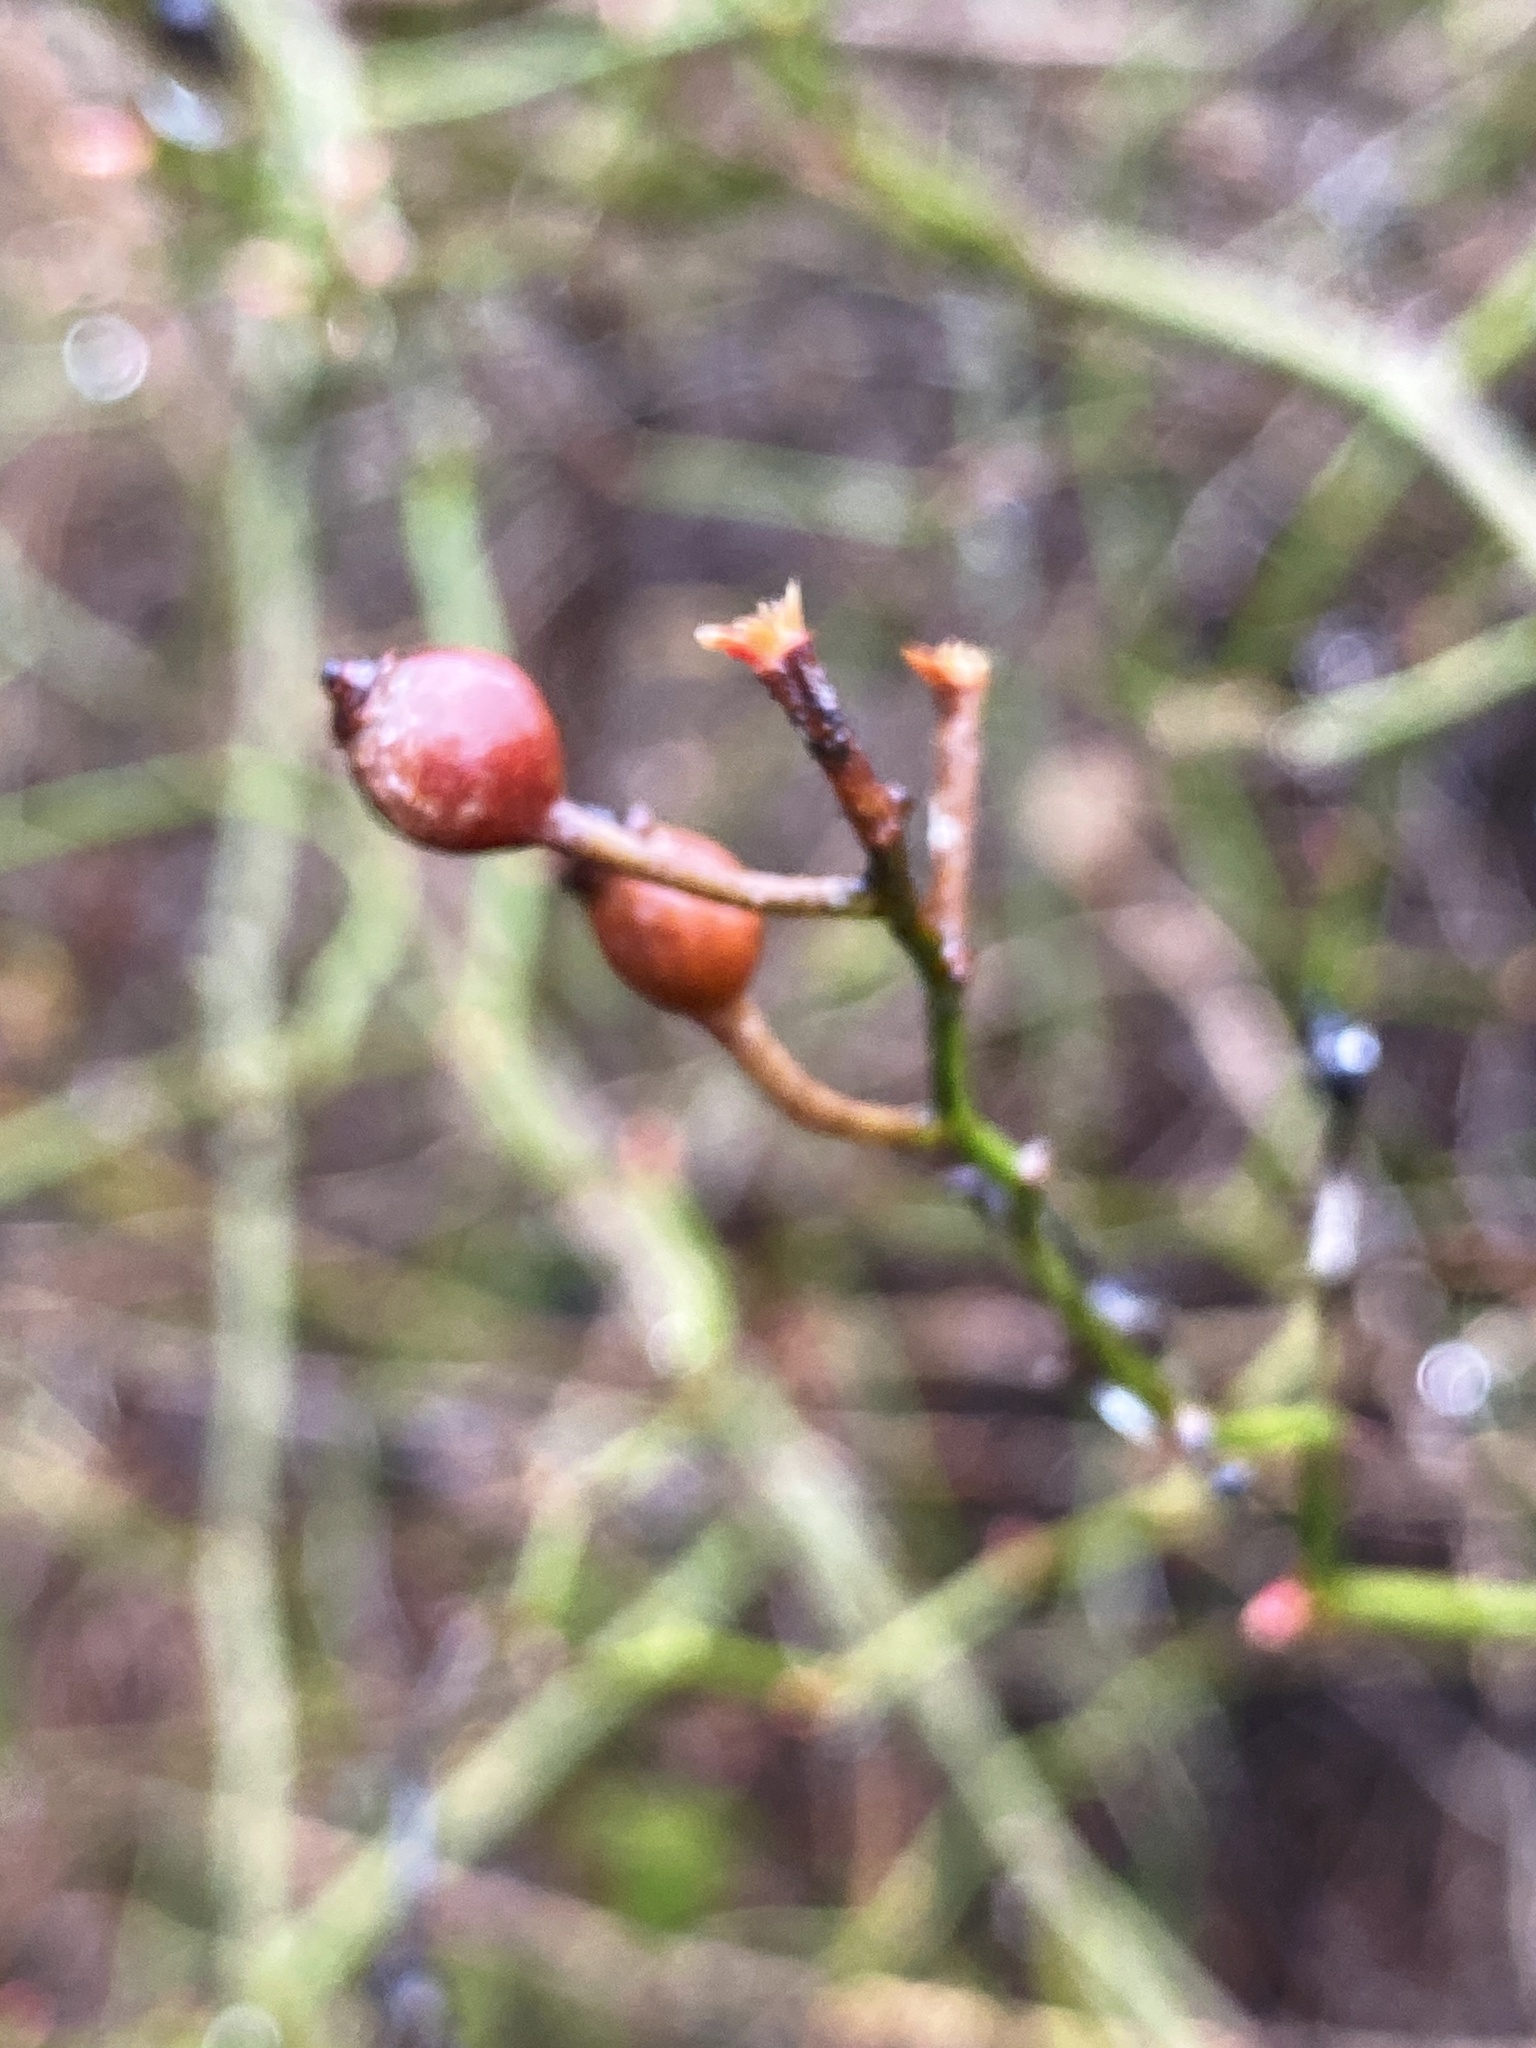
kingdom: Plantae
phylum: Tracheophyta
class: Magnoliopsida
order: Rosales
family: Rosaceae
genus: Rosa
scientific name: Rosa multiflora
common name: Multiflora rose
